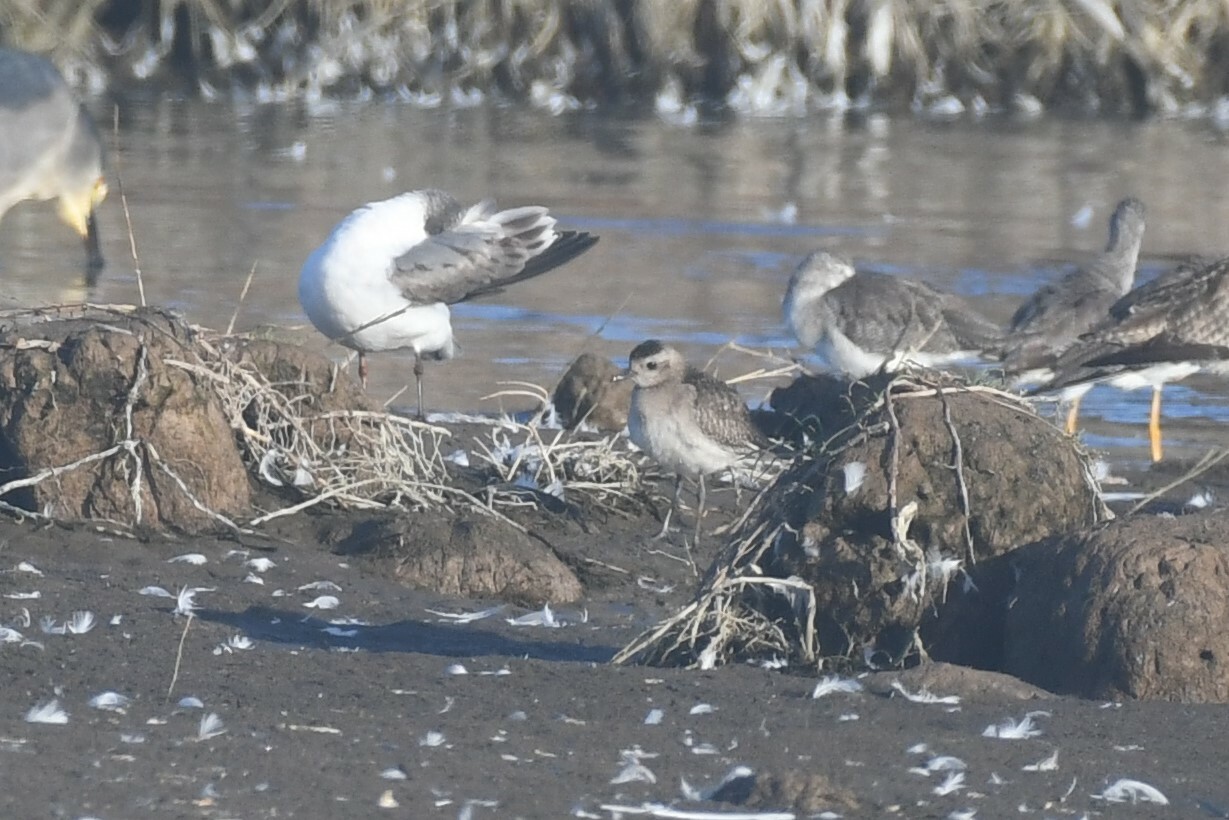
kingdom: Animalia
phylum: Chordata
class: Aves
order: Charadriiformes
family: Charadriidae
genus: Pluvialis
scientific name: Pluvialis dominica
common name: American golden plover
